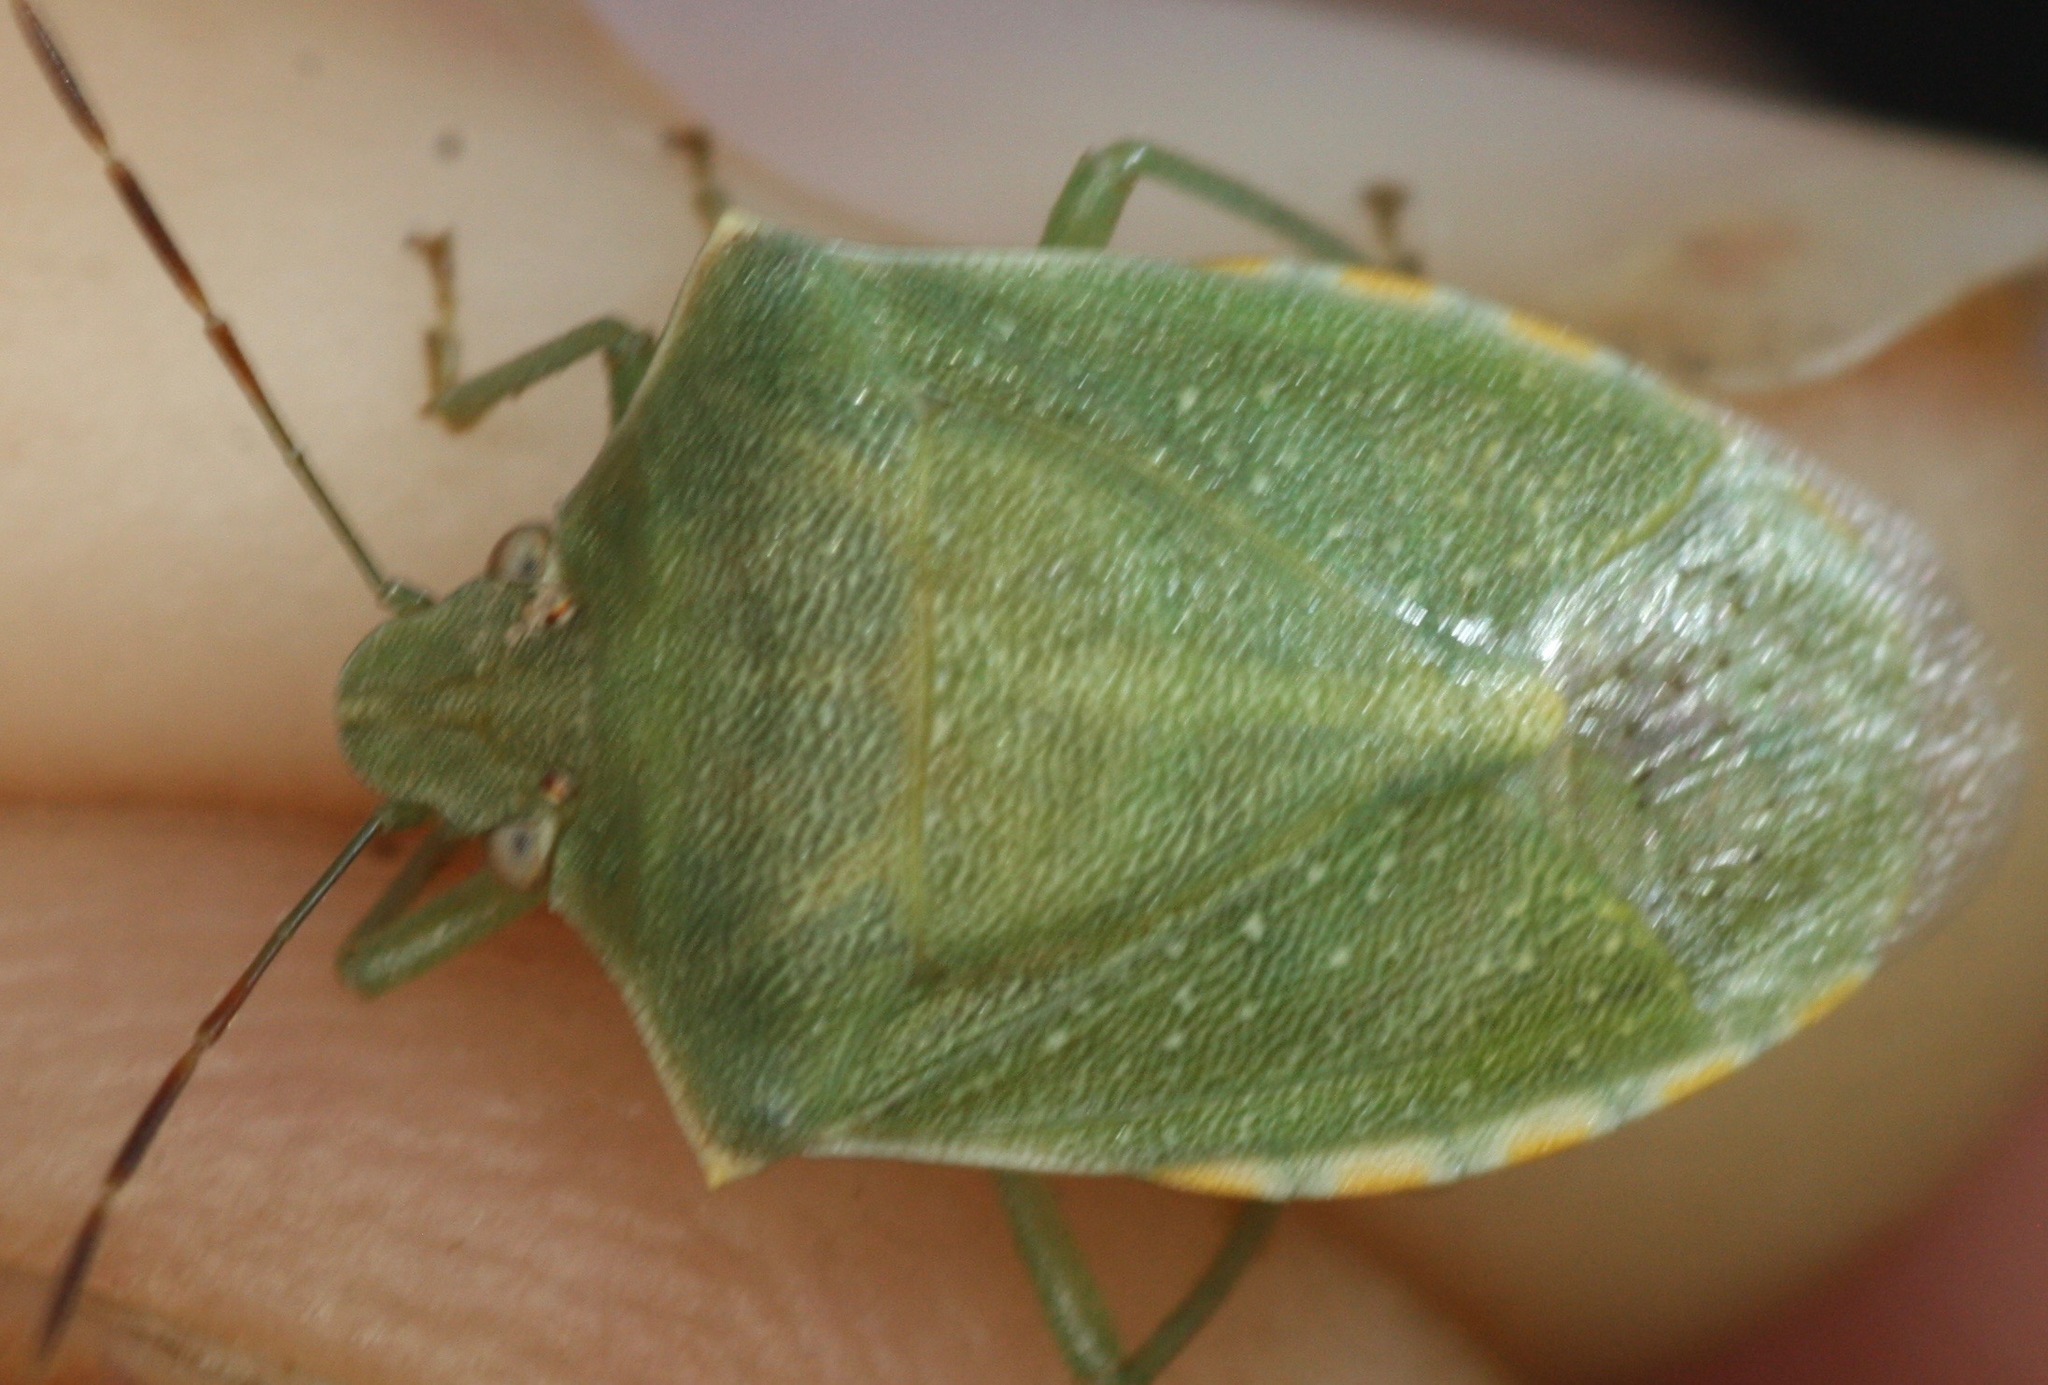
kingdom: Animalia
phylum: Arthropoda
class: Insecta
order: Hemiptera
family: Pentatomidae
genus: Thyanta
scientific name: Thyanta accerra
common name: Stink bug
